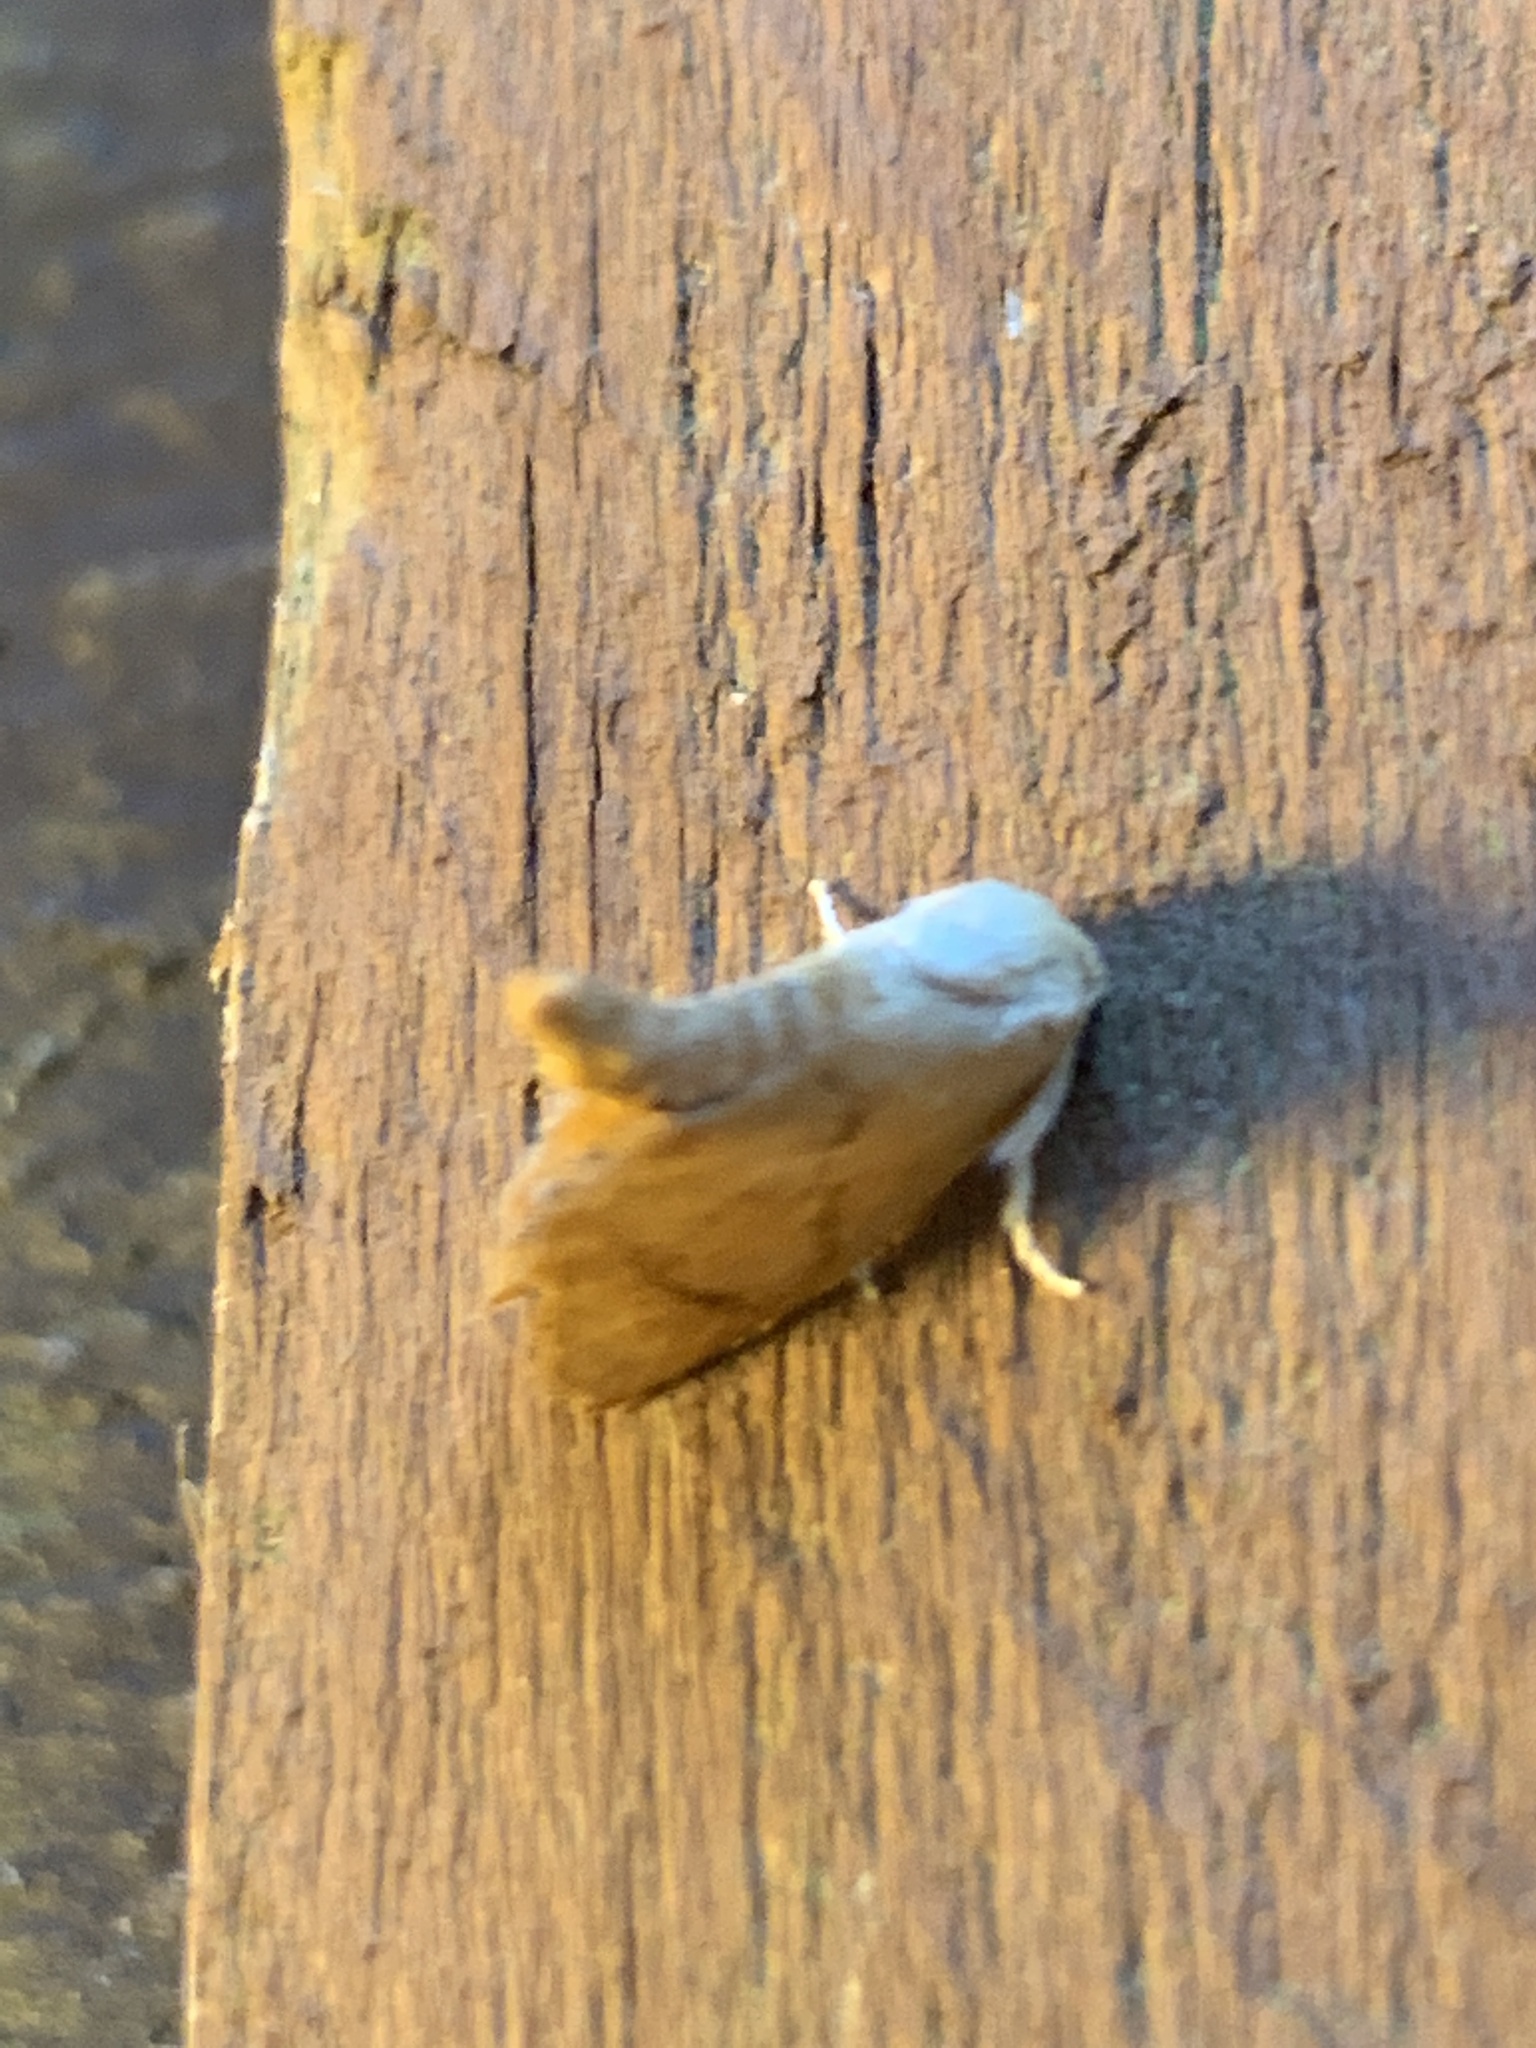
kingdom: Animalia
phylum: Arthropoda
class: Insecta
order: Lepidoptera
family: Limacodidae
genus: Tortricidia
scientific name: Tortricidia flexuosa
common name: Abbreviated button slug moth
